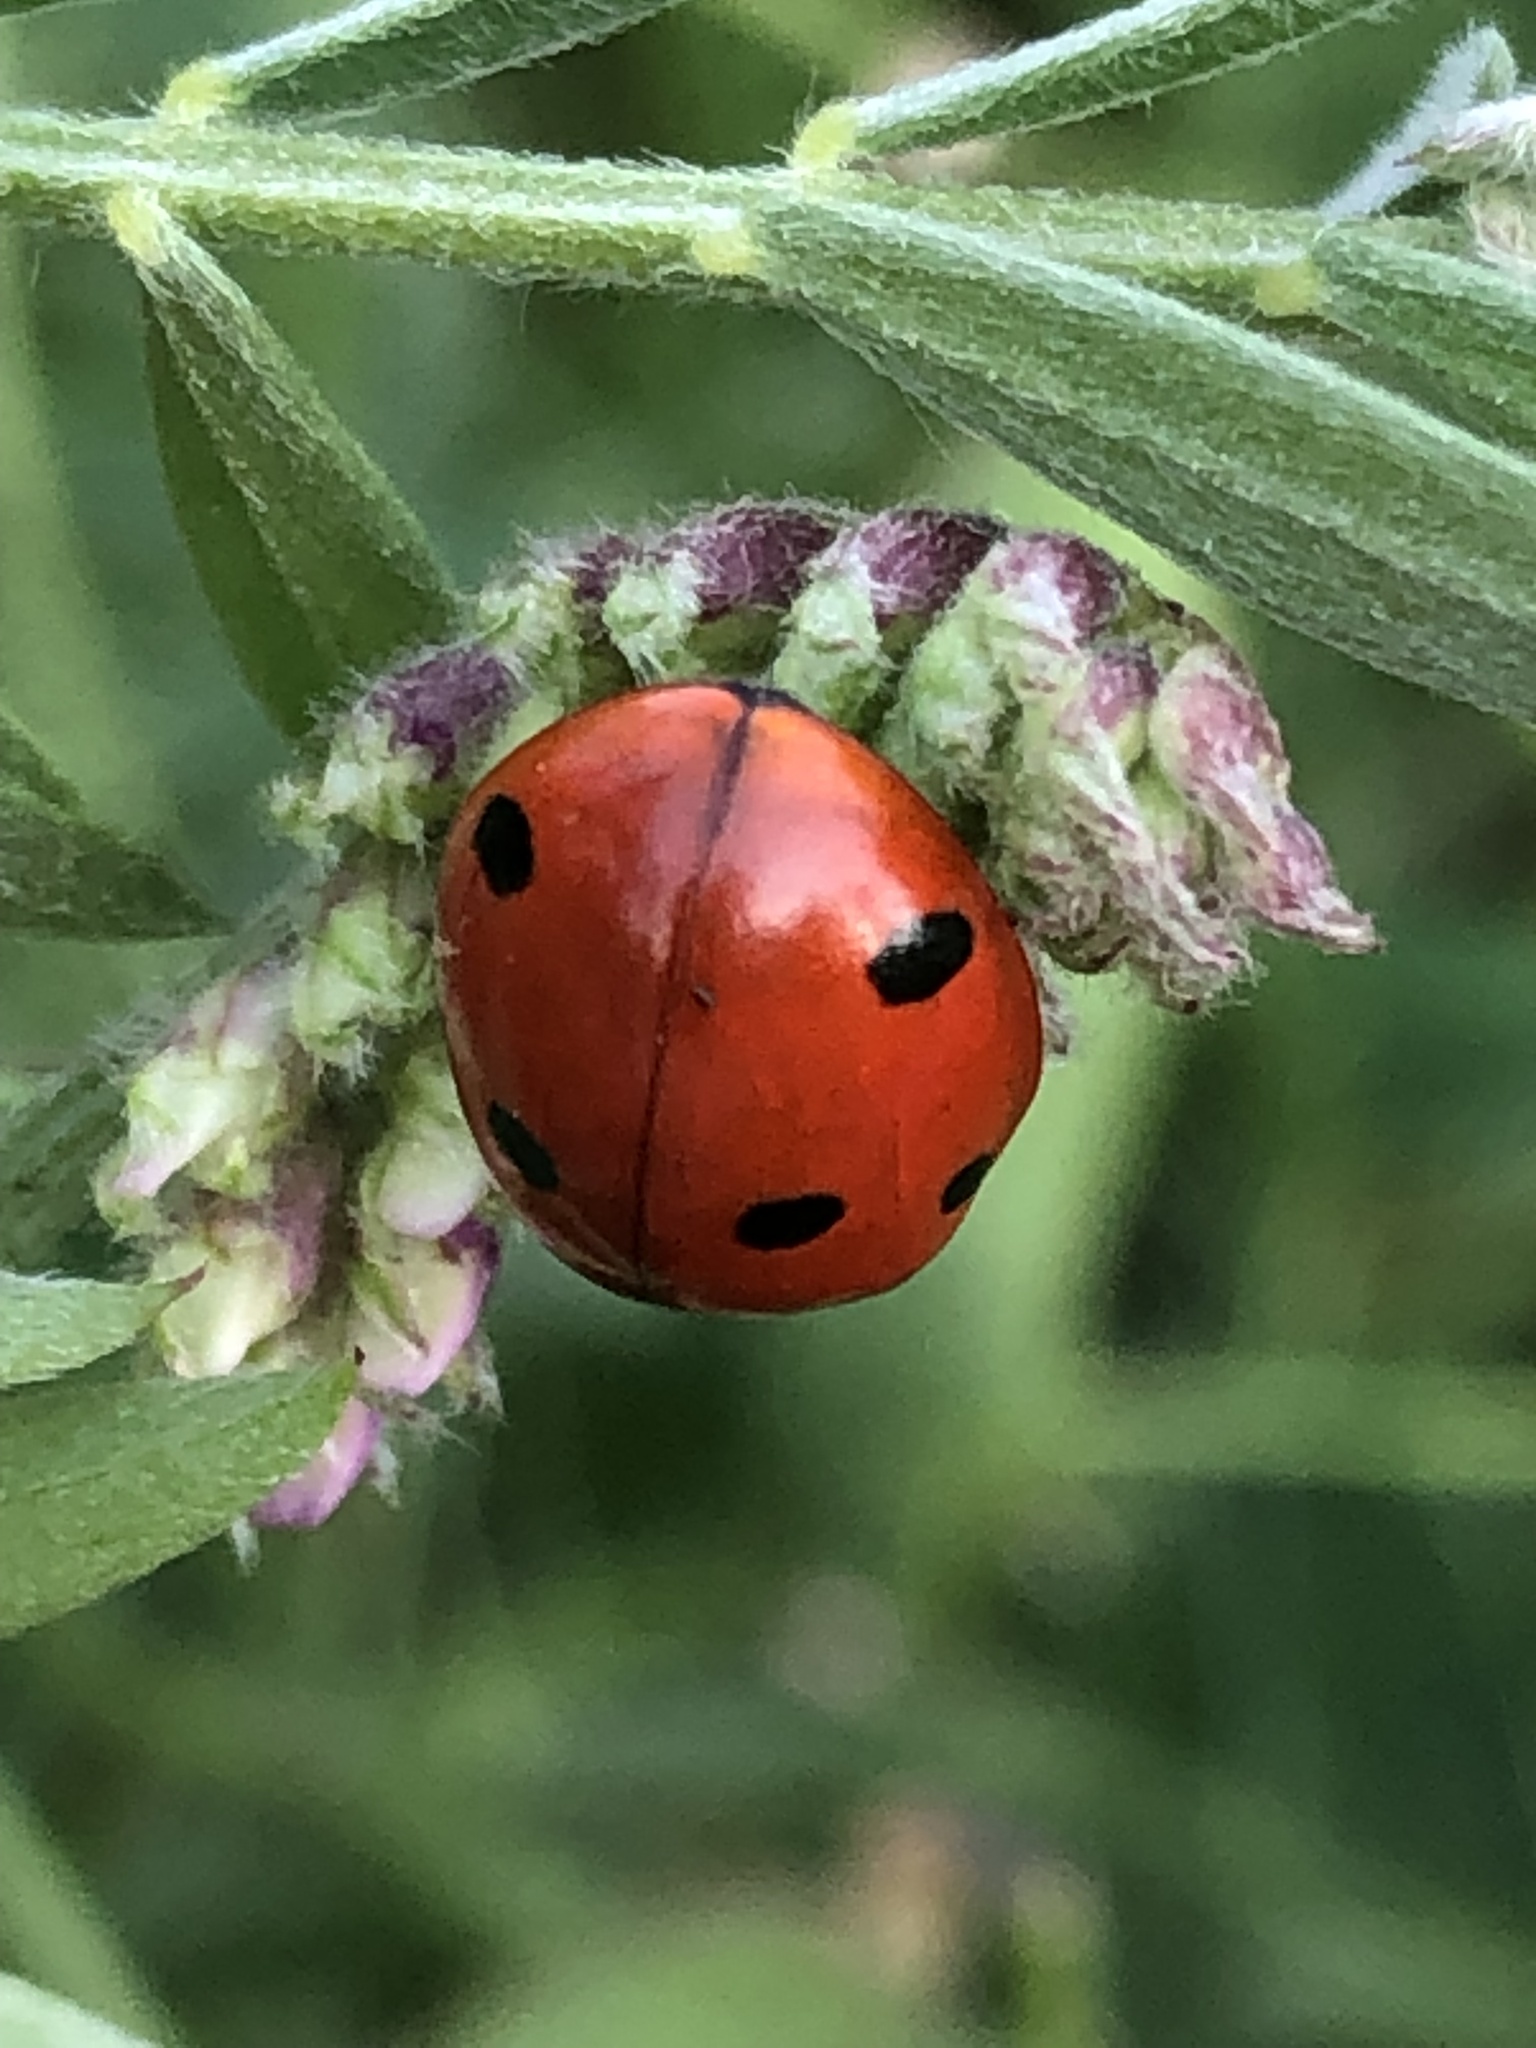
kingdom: Animalia
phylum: Arthropoda
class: Insecta
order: Coleoptera
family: Coccinellidae
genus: Coccinella
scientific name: Coccinella septempunctata
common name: Sevenspotted lady beetle
